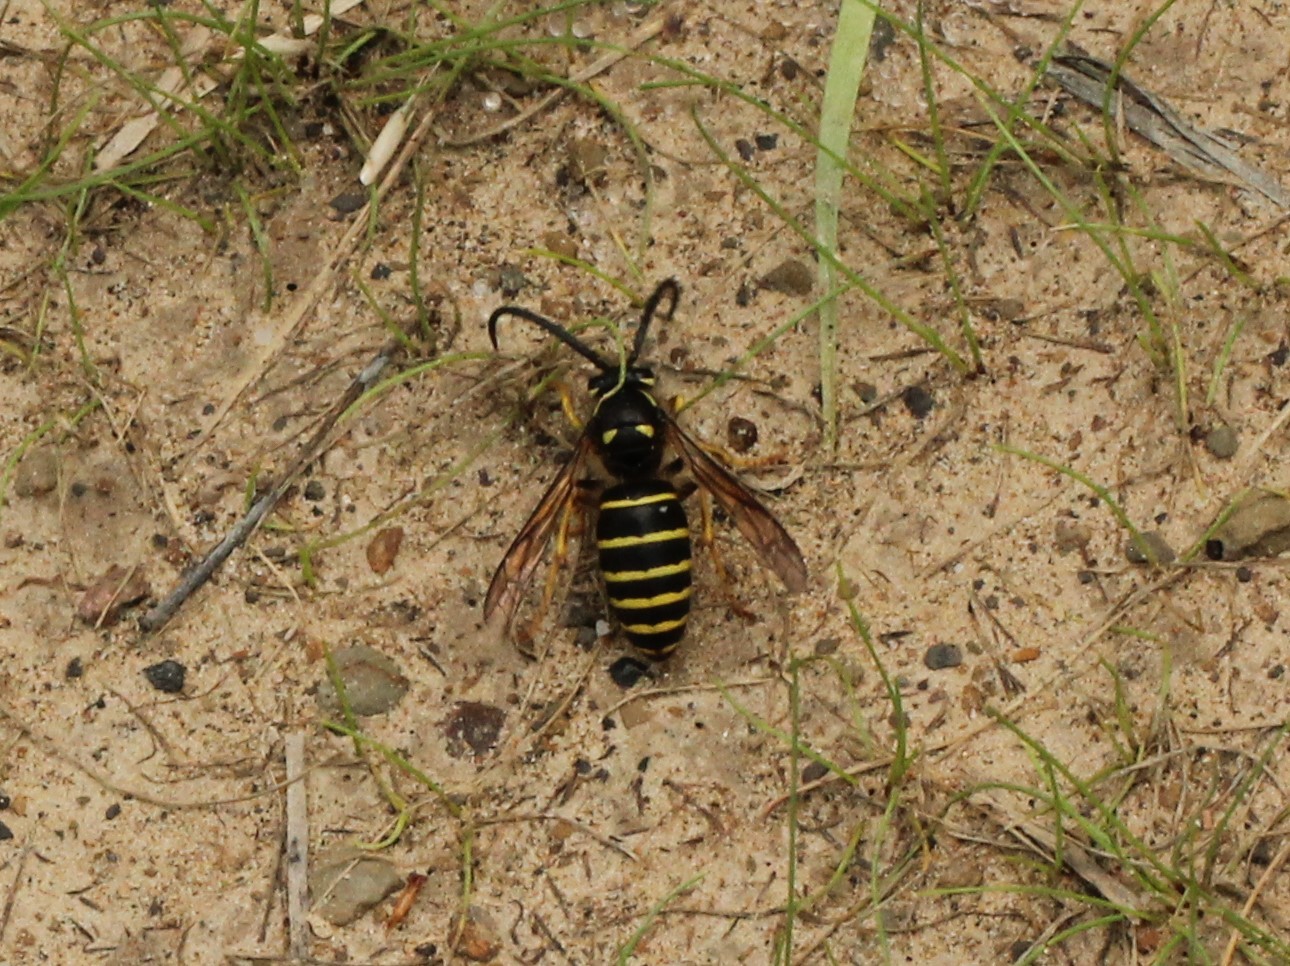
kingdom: Animalia
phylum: Arthropoda
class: Insecta
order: Hymenoptera
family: Vespidae
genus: Dolichovespula
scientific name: Dolichovespula norvegicoides
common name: Northern aerial yellowjacket
